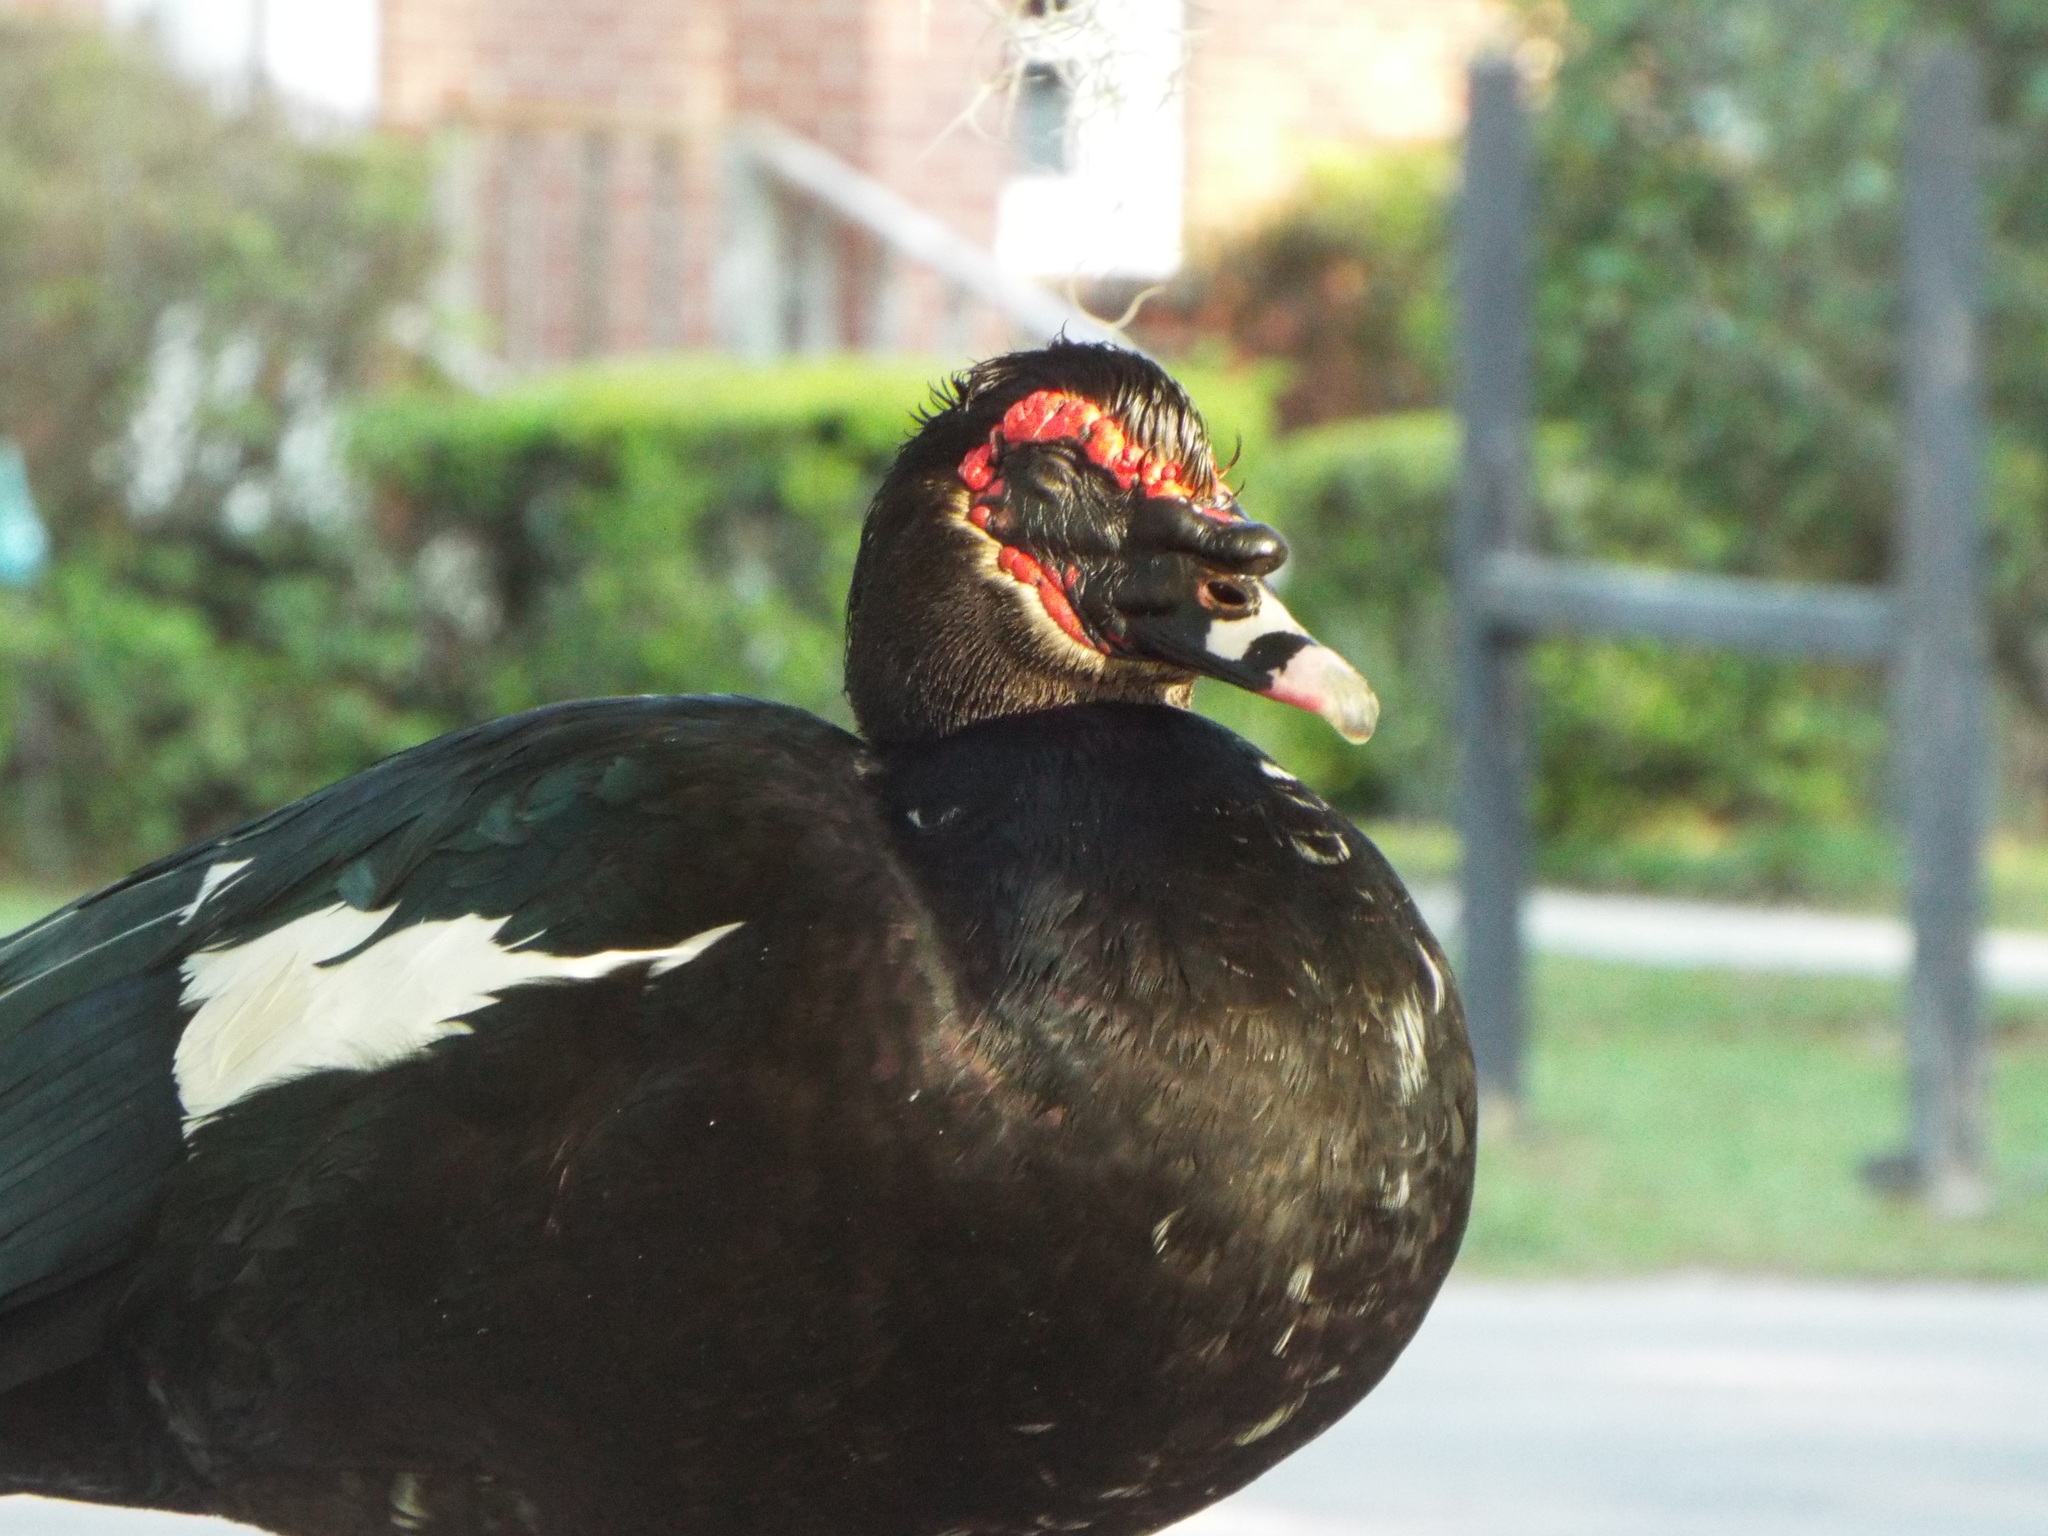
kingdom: Animalia
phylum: Chordata
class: Aves
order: Anseriformes
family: Anatidae
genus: Cairina
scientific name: Cairina moschata
